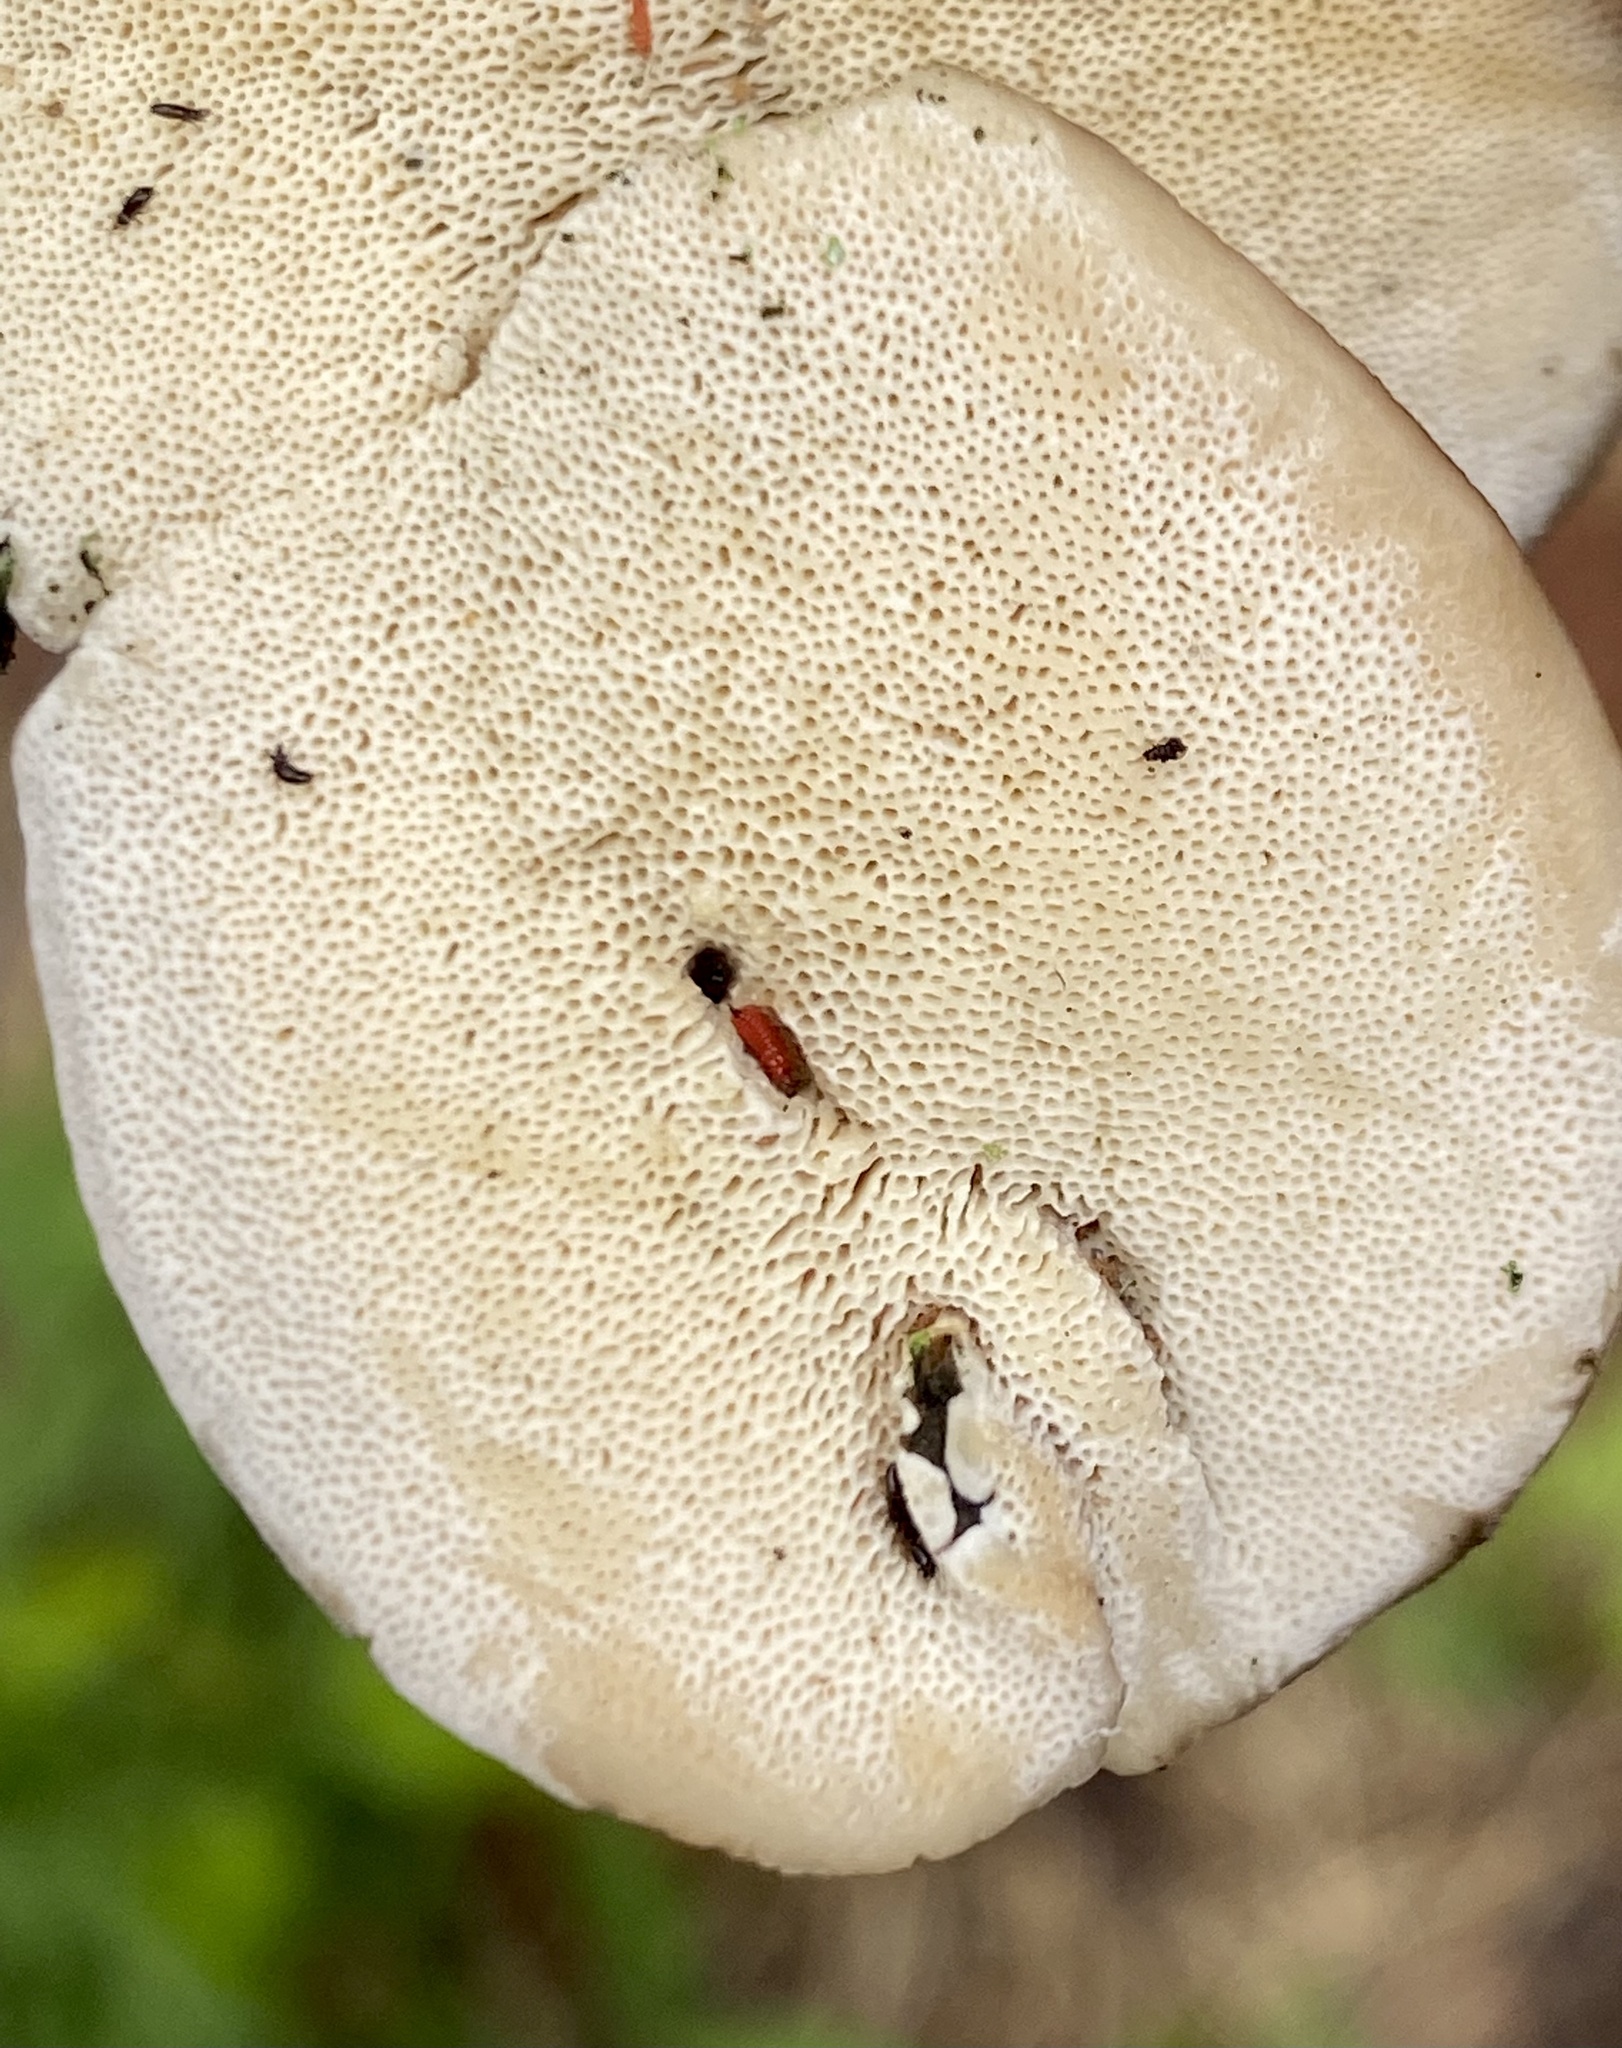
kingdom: Fungi
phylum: Basidiomycota
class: Agaricomycetes
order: Polyporales
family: Polyporaceae
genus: Trametes
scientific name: Trametes hirsuta
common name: Hairy bracket
